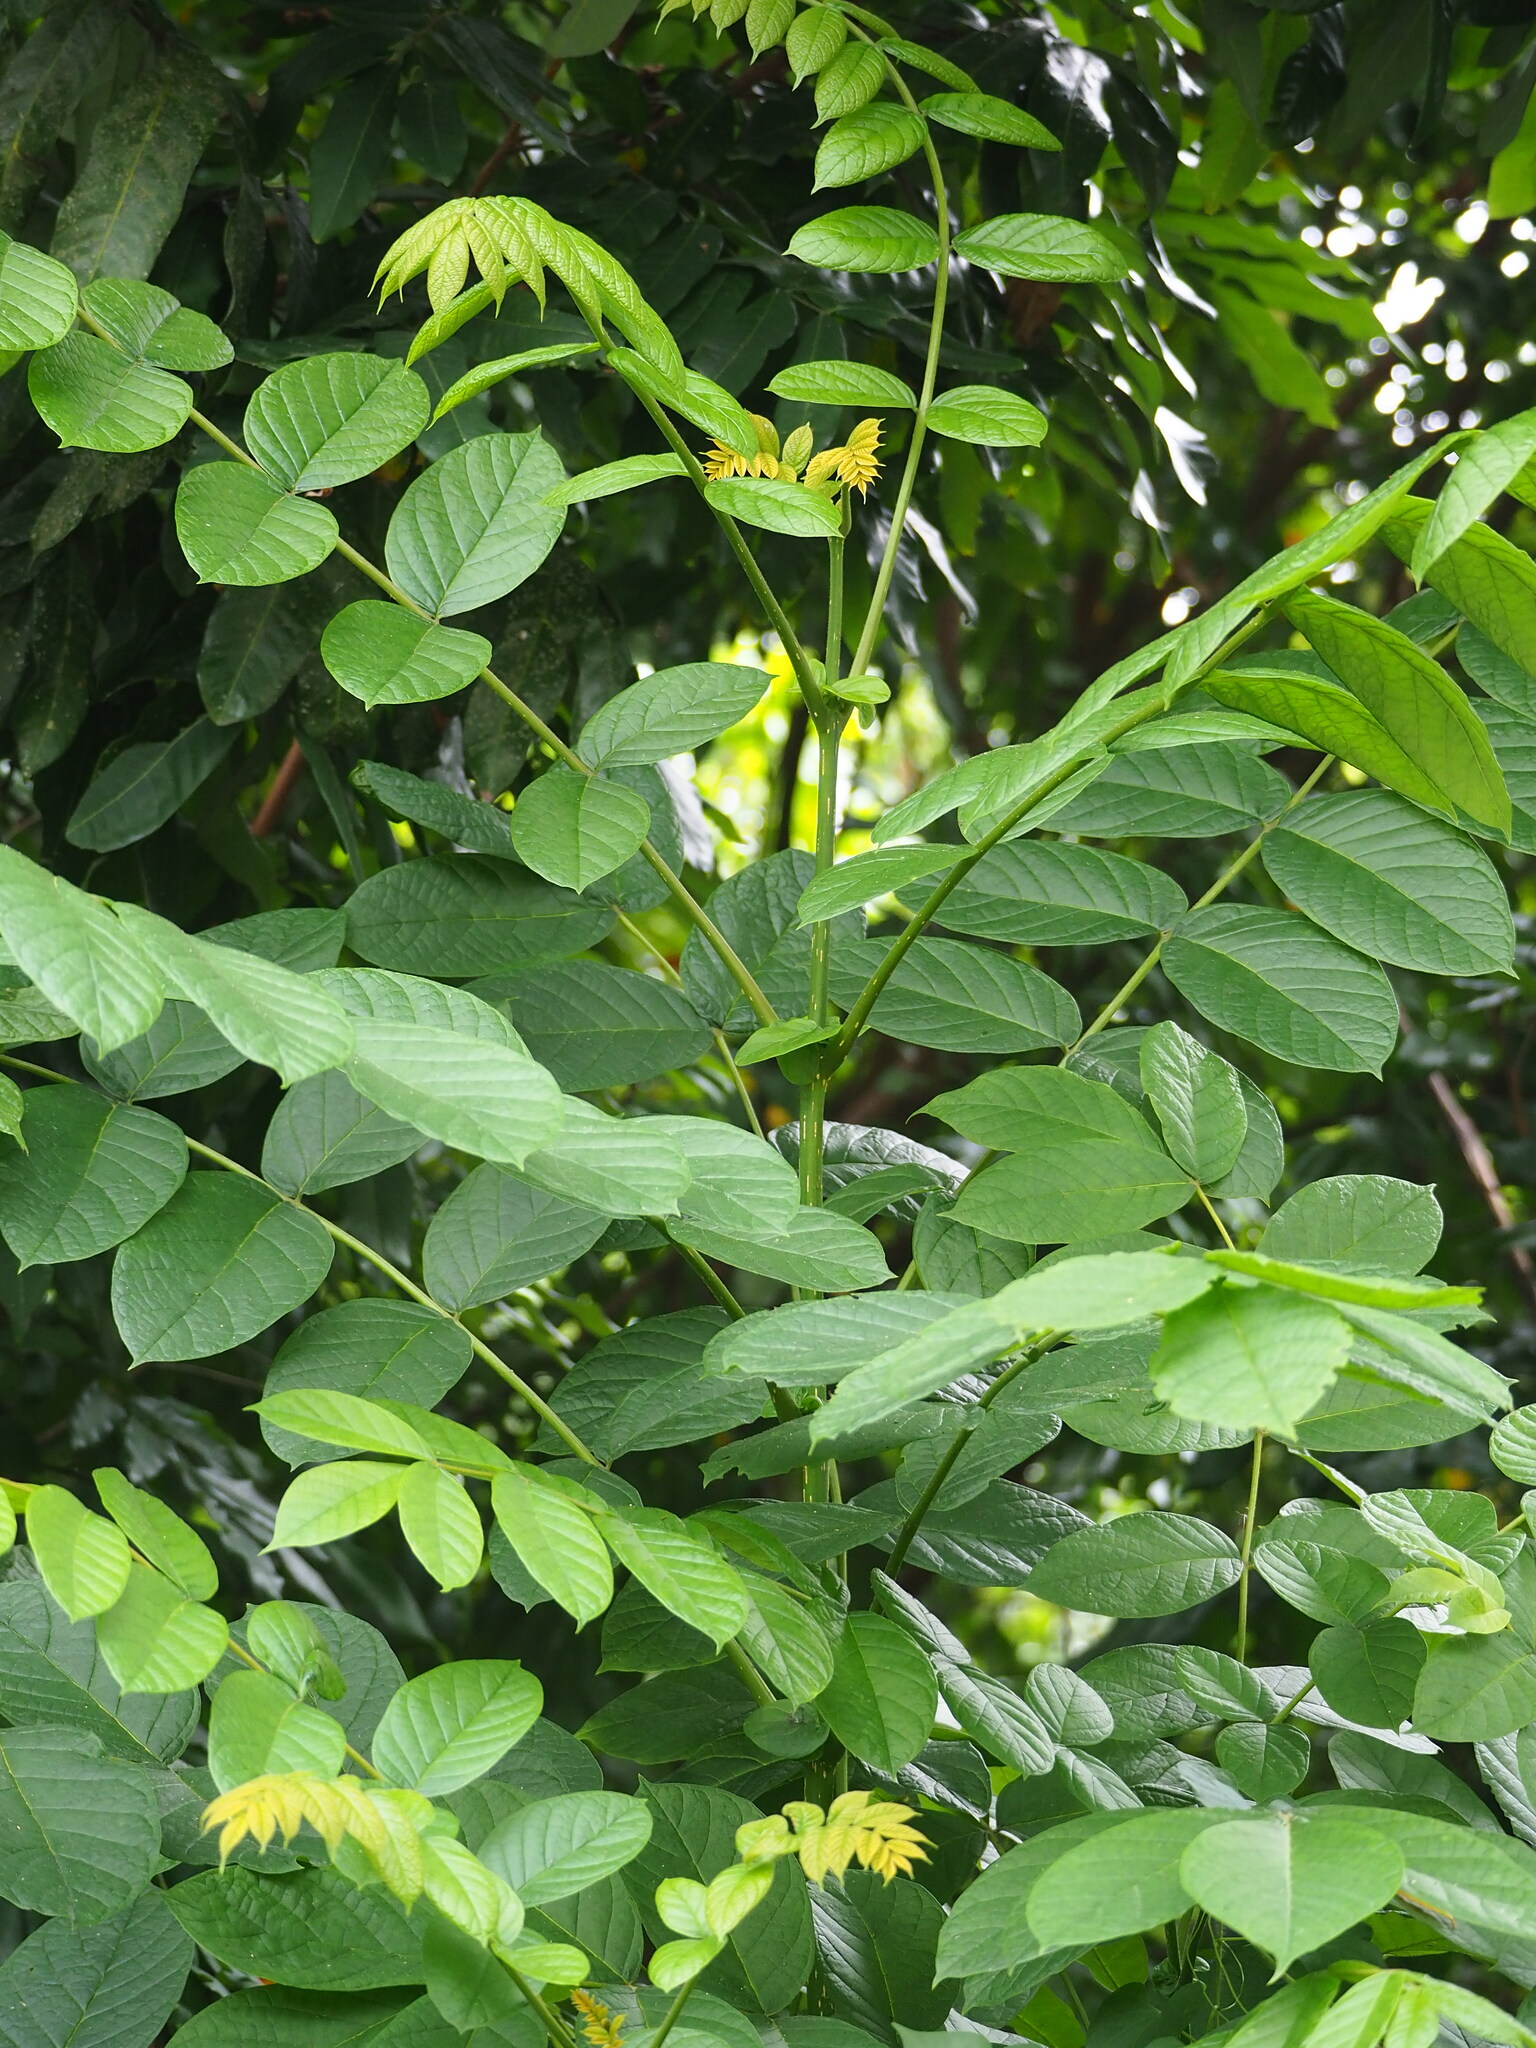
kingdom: Plantae
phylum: Tracheophyta
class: Magnoliopsida
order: Lamiales
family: Bignoniaceae
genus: Spathodea
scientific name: Spathodea campanulata
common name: African tuliptree
